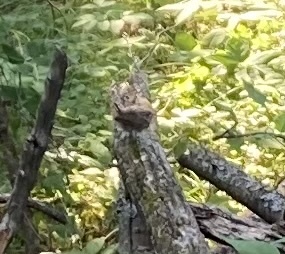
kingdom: Animalia
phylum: Chordata
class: Aves
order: Passeriformes
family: Troglodytidae
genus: Troglodytes
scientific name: Troglodytes aedon
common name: House wren
